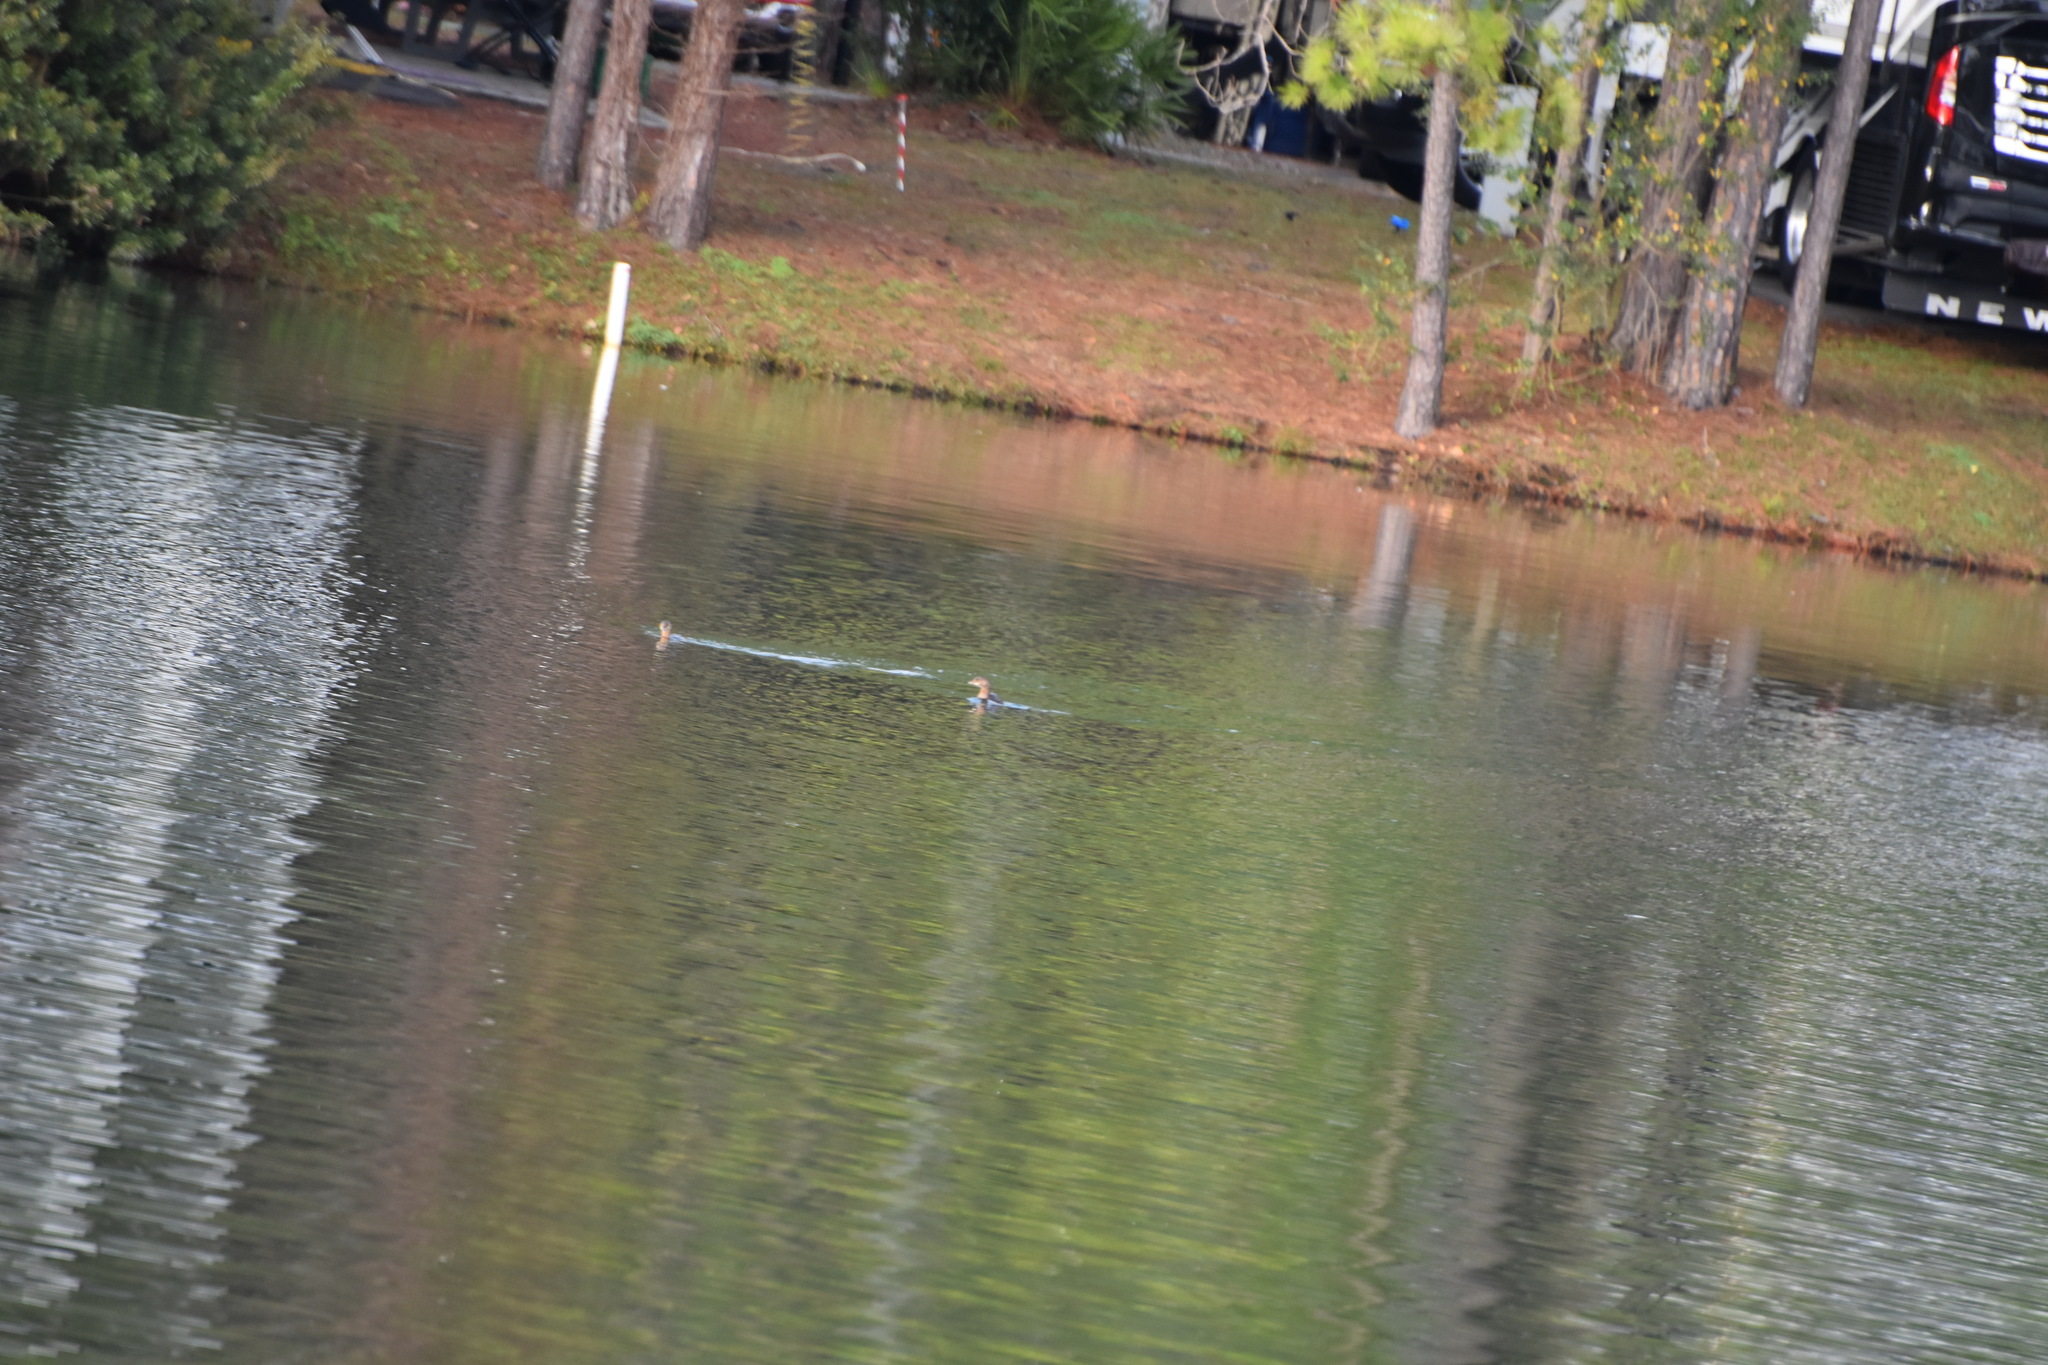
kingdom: Animalia
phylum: Chordata
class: Aves
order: Podicipediformes
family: Podicipedidae
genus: Podilymbus
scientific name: Podilymbus podiceps
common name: Pied-billed grebe
